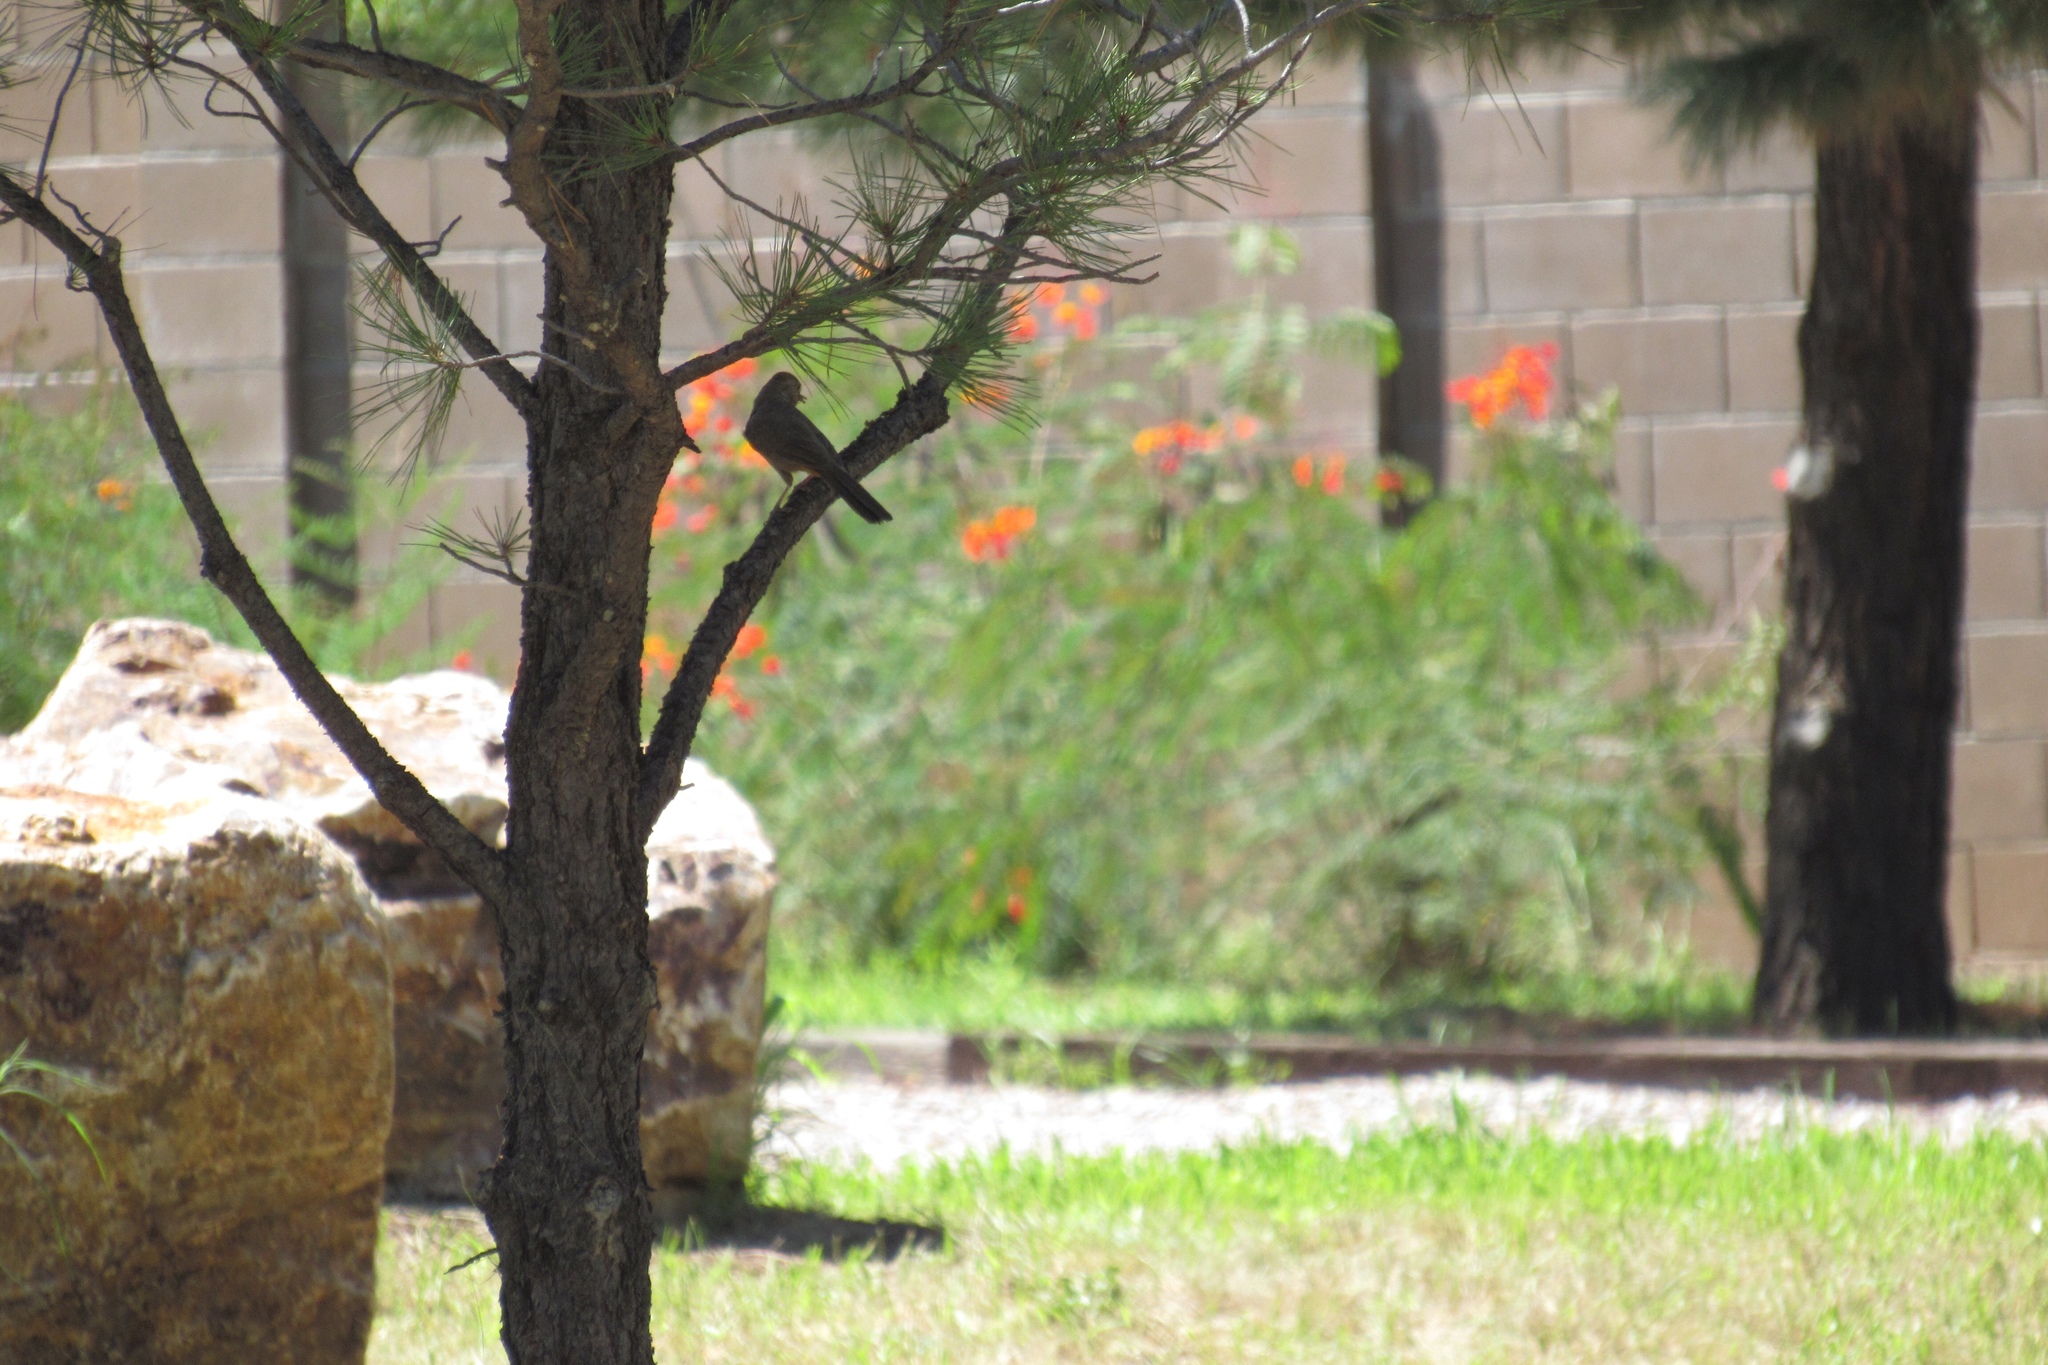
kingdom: Animalia
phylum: Chordata
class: Aves
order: Passeriformes
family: Passerellidae
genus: Melozone
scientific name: Melozone fusca
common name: Canyon towhee
